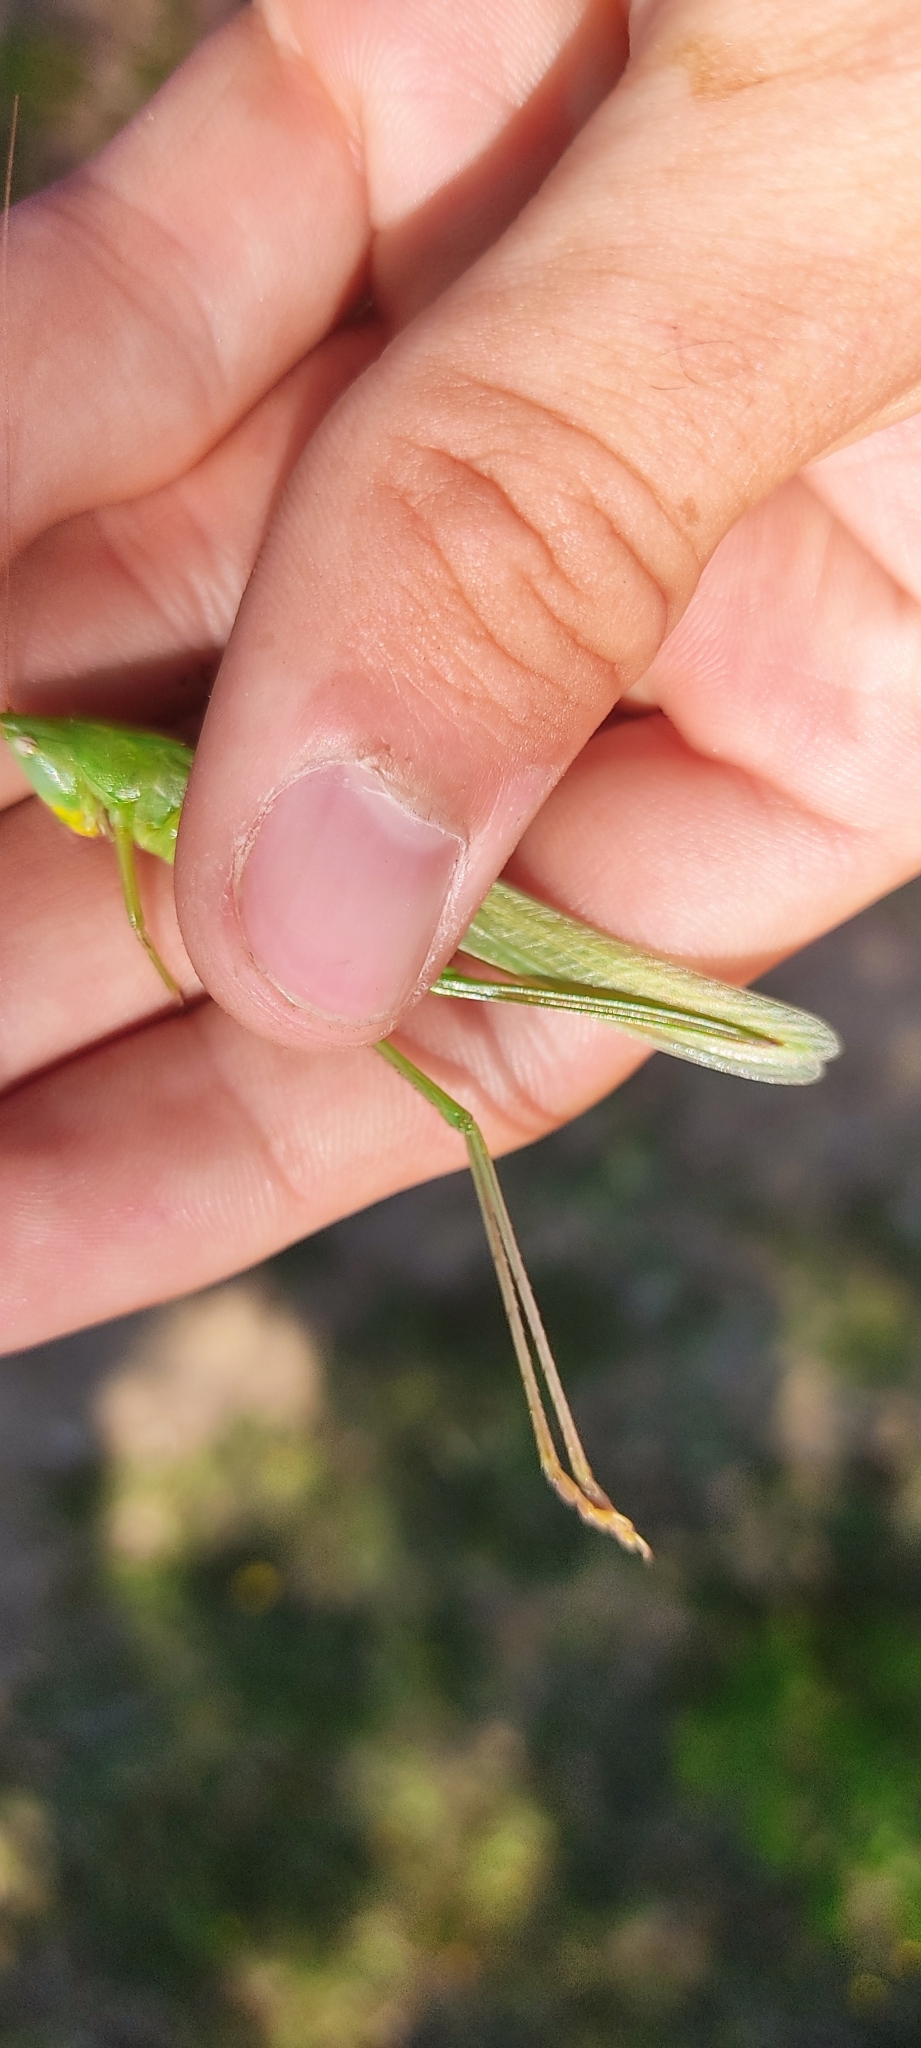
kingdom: Animalia
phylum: Arthropoda
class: Insecta
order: Orthoptera
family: Tettigoniidae
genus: Ruspolia
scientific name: Ruspolia nitidula
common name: Large conehead
